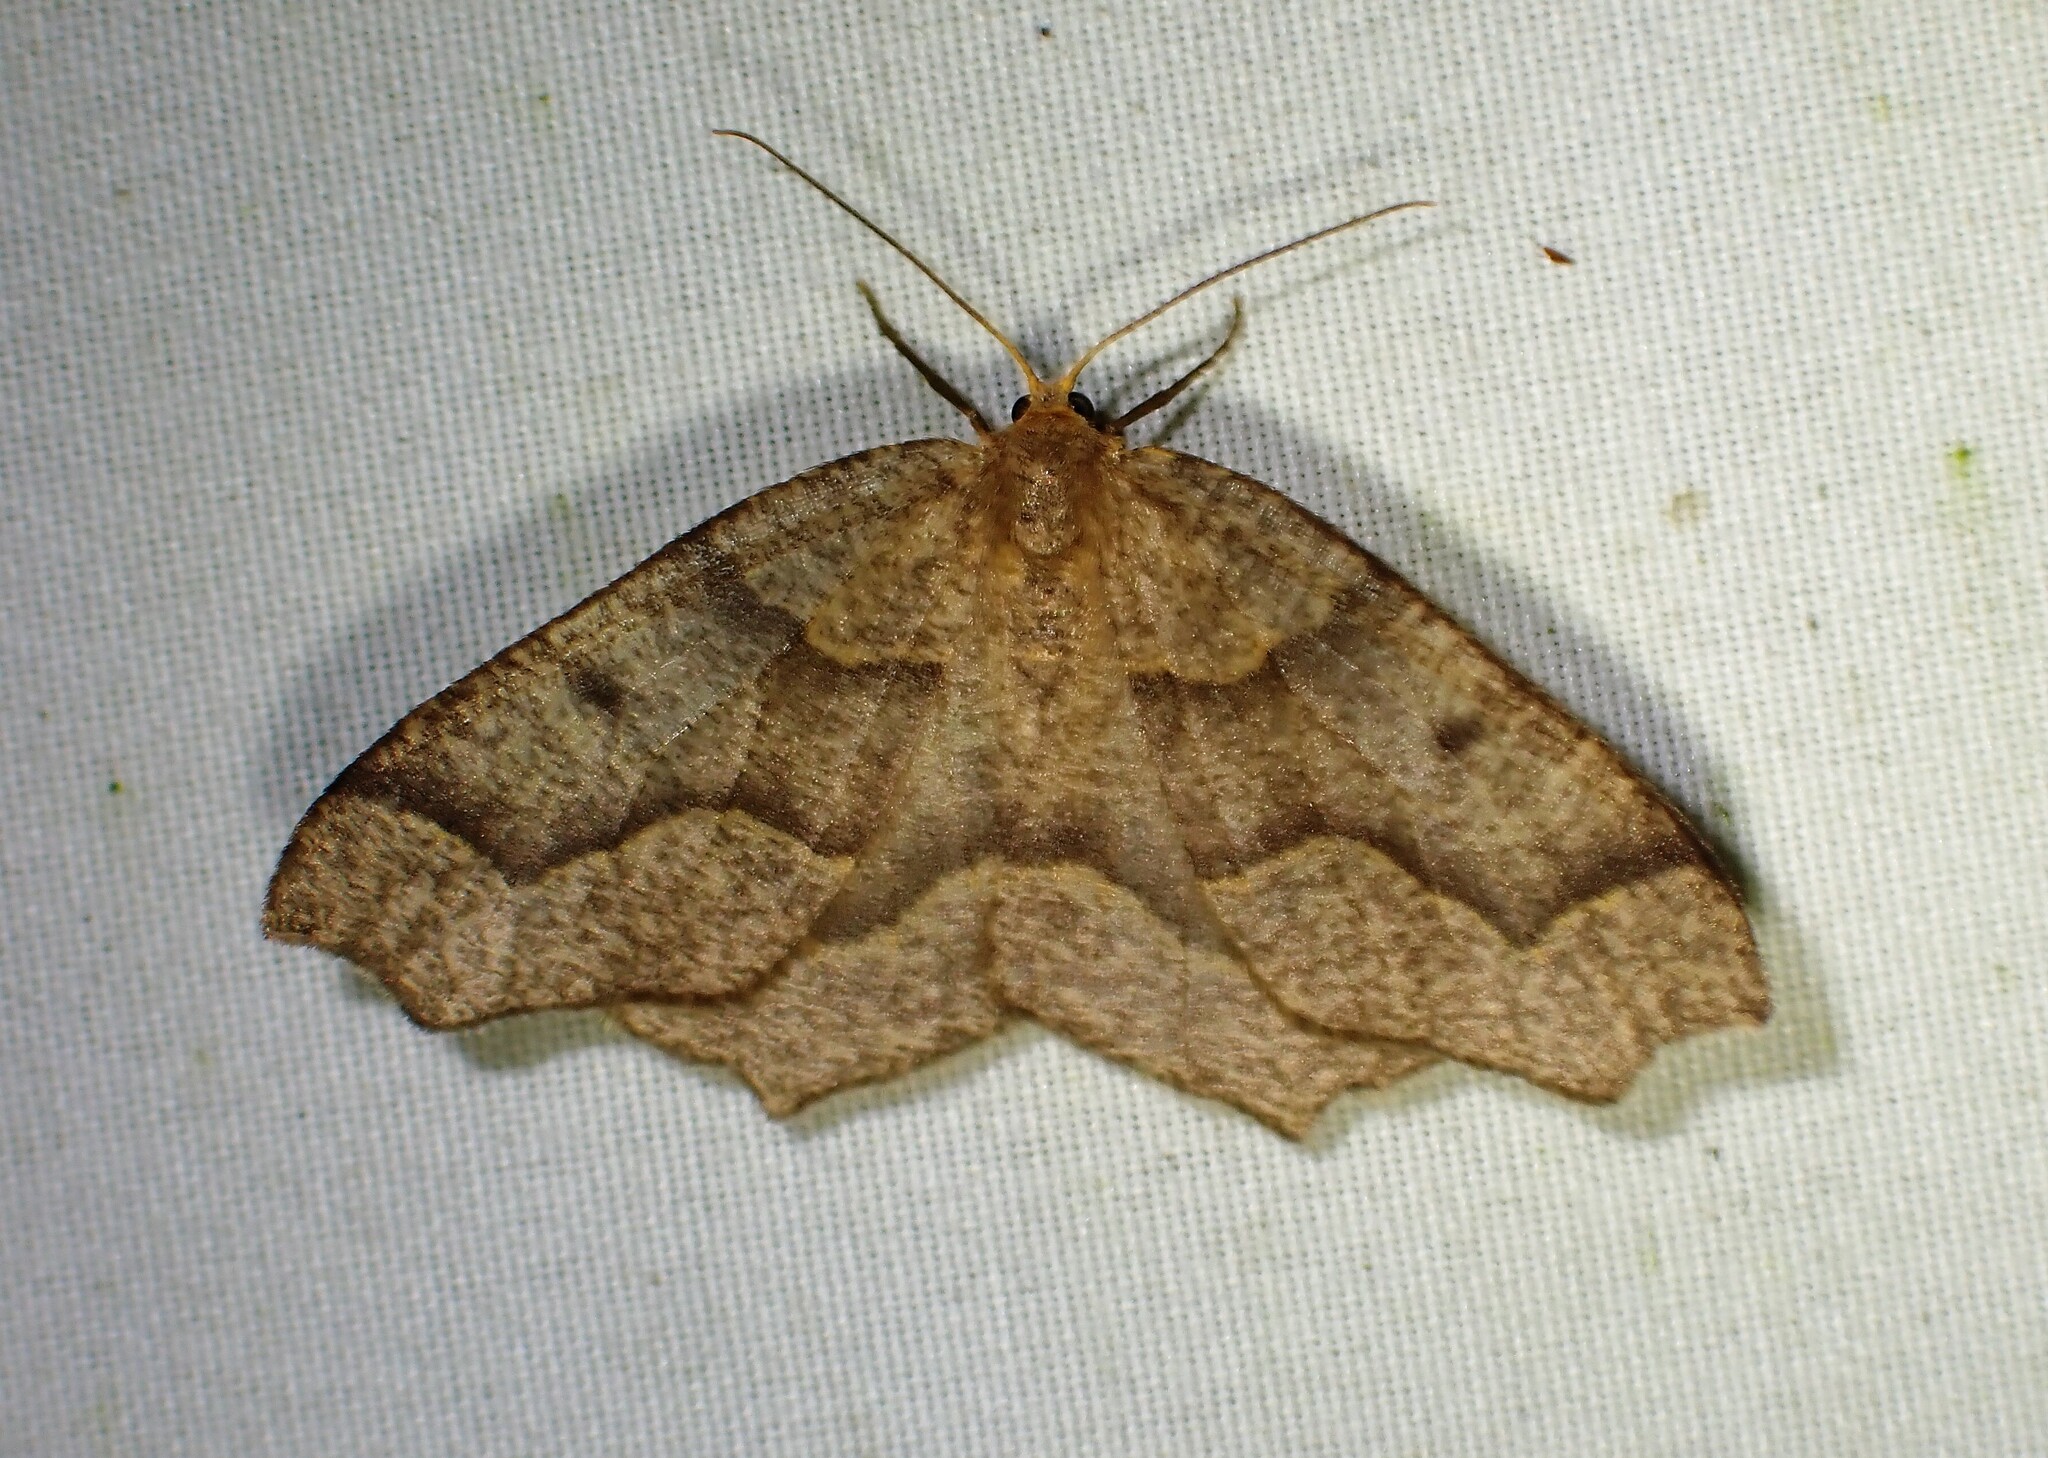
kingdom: Animalia
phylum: Arthropoda
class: Insecta
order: Lepidoptera
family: Geometridae
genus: Lambdina
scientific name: Lambdina fiscellaria
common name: Hemlock looper
